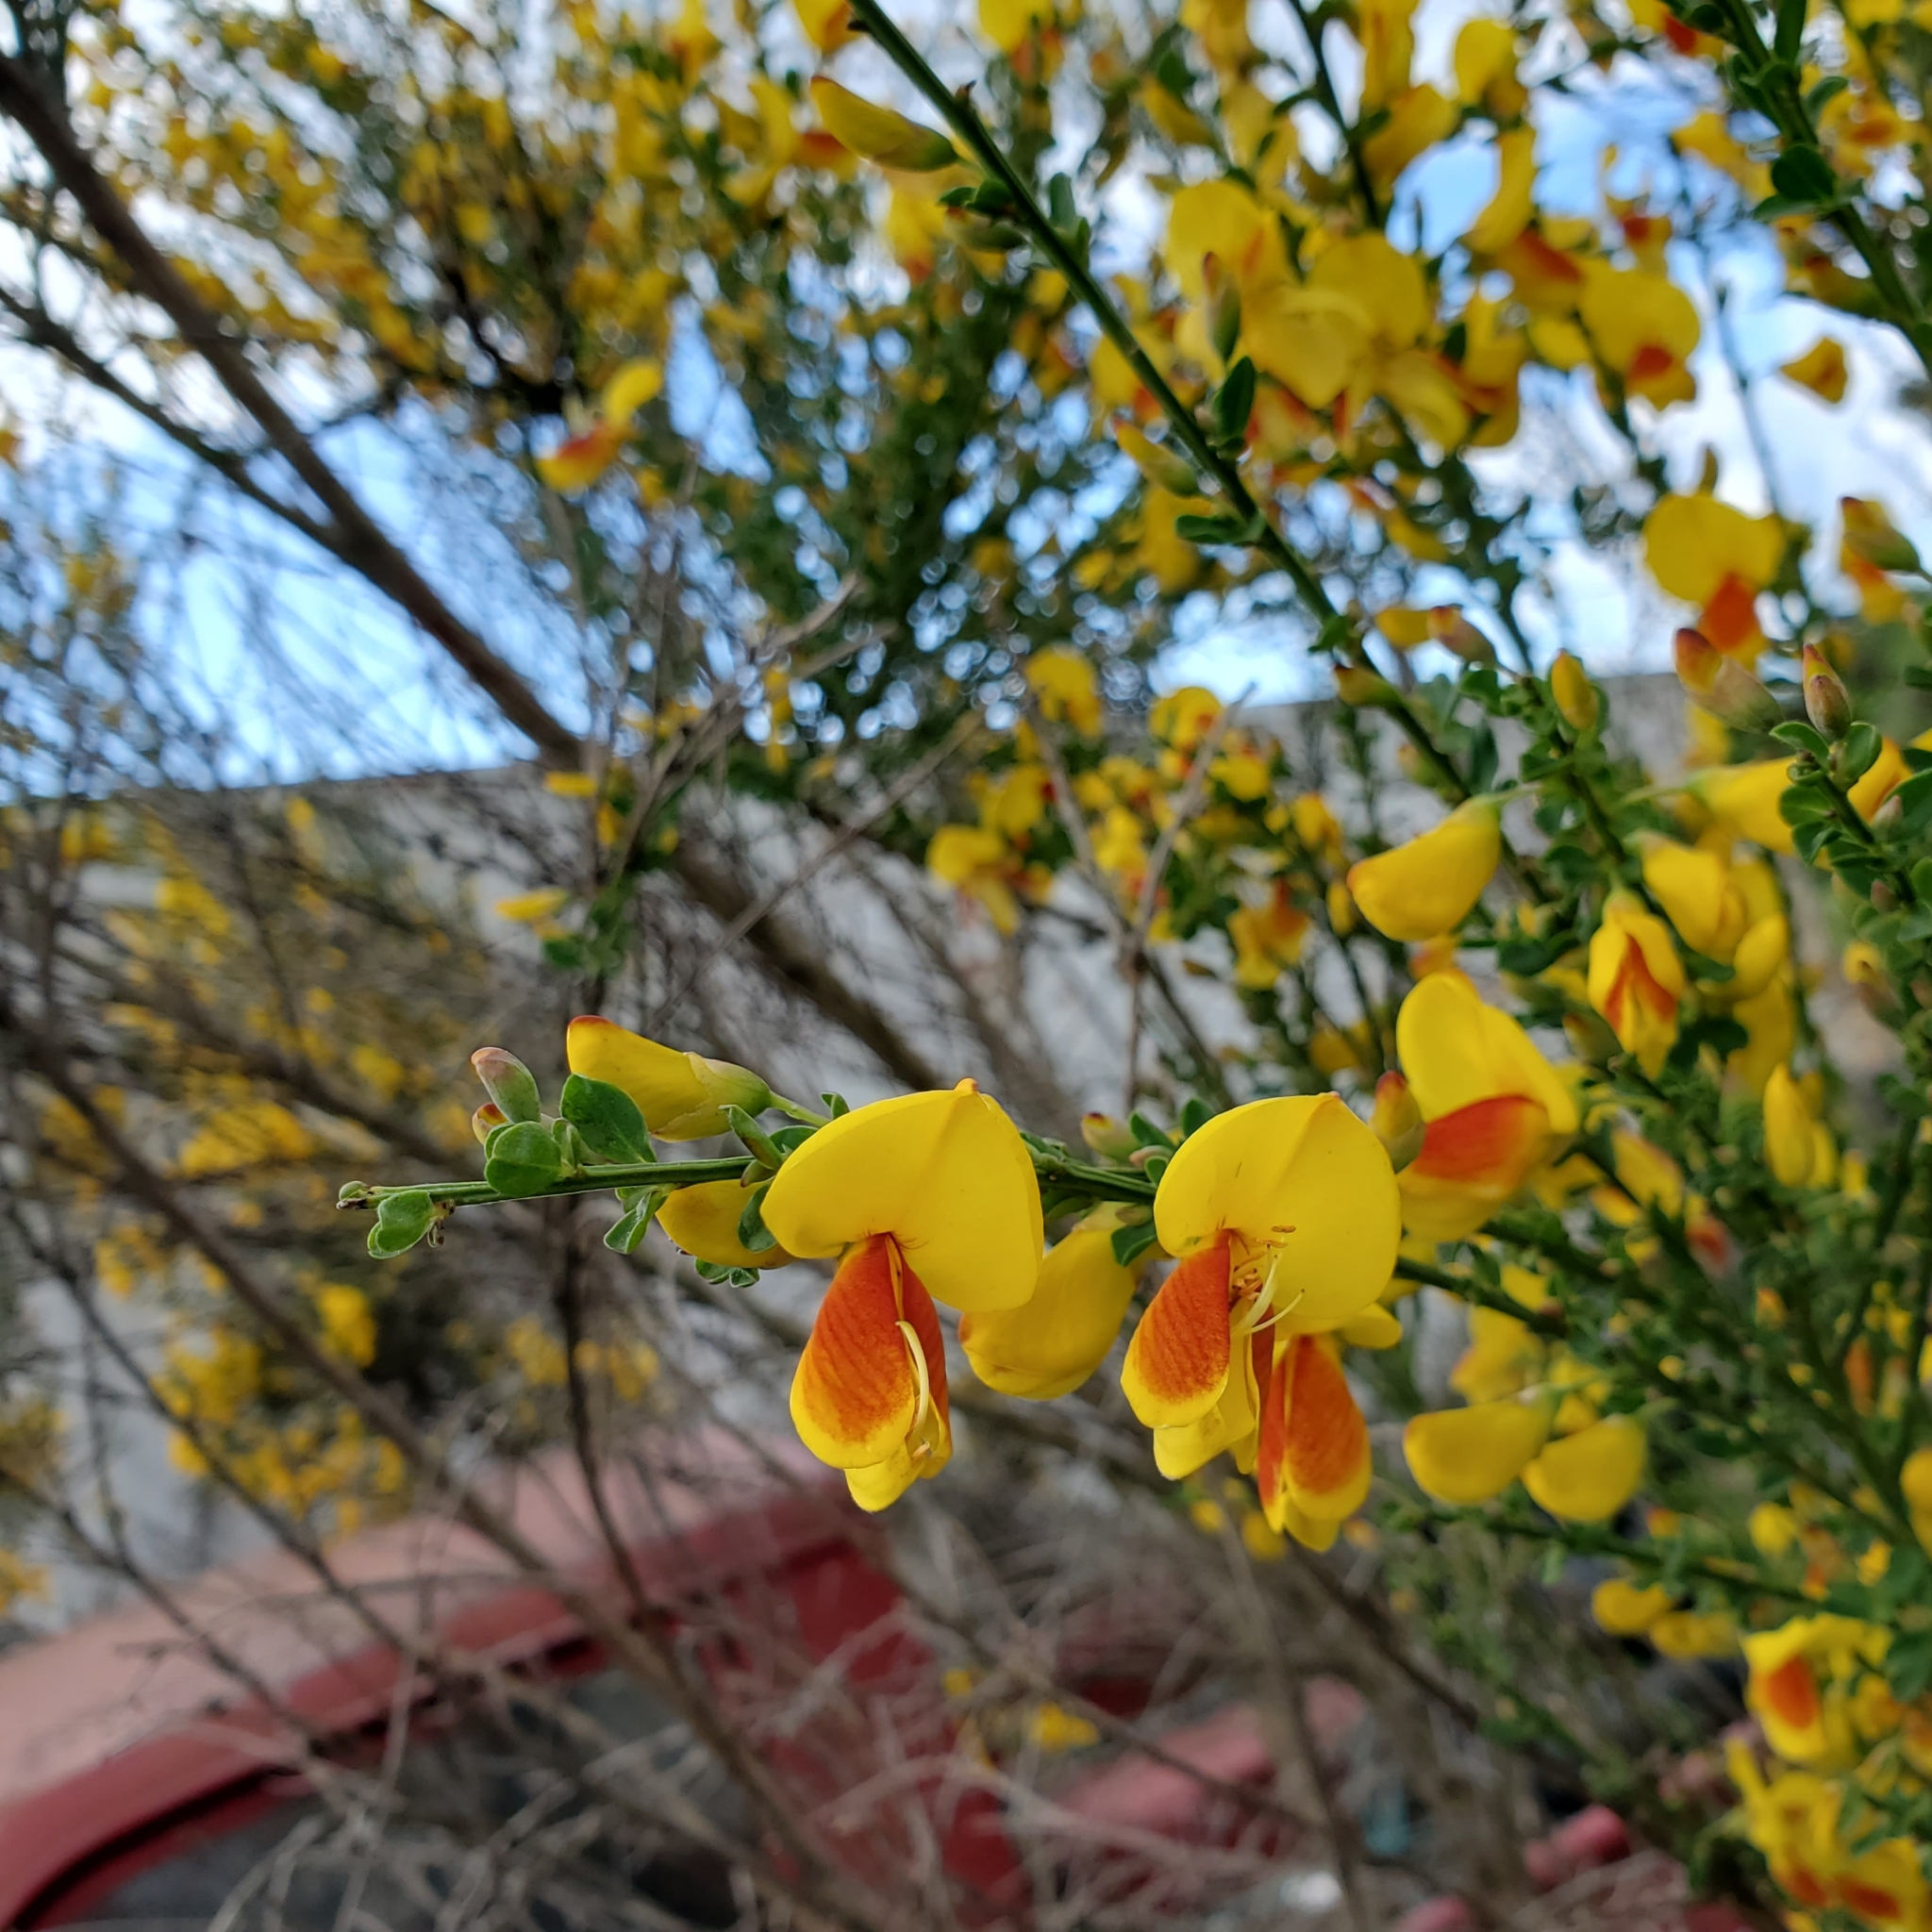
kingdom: Plantae
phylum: Tracheophyta
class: Magnoliopsida
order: Fabales
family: Fabaceae
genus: Cytisus
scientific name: Cytisus scoparius
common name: Scotch broom
